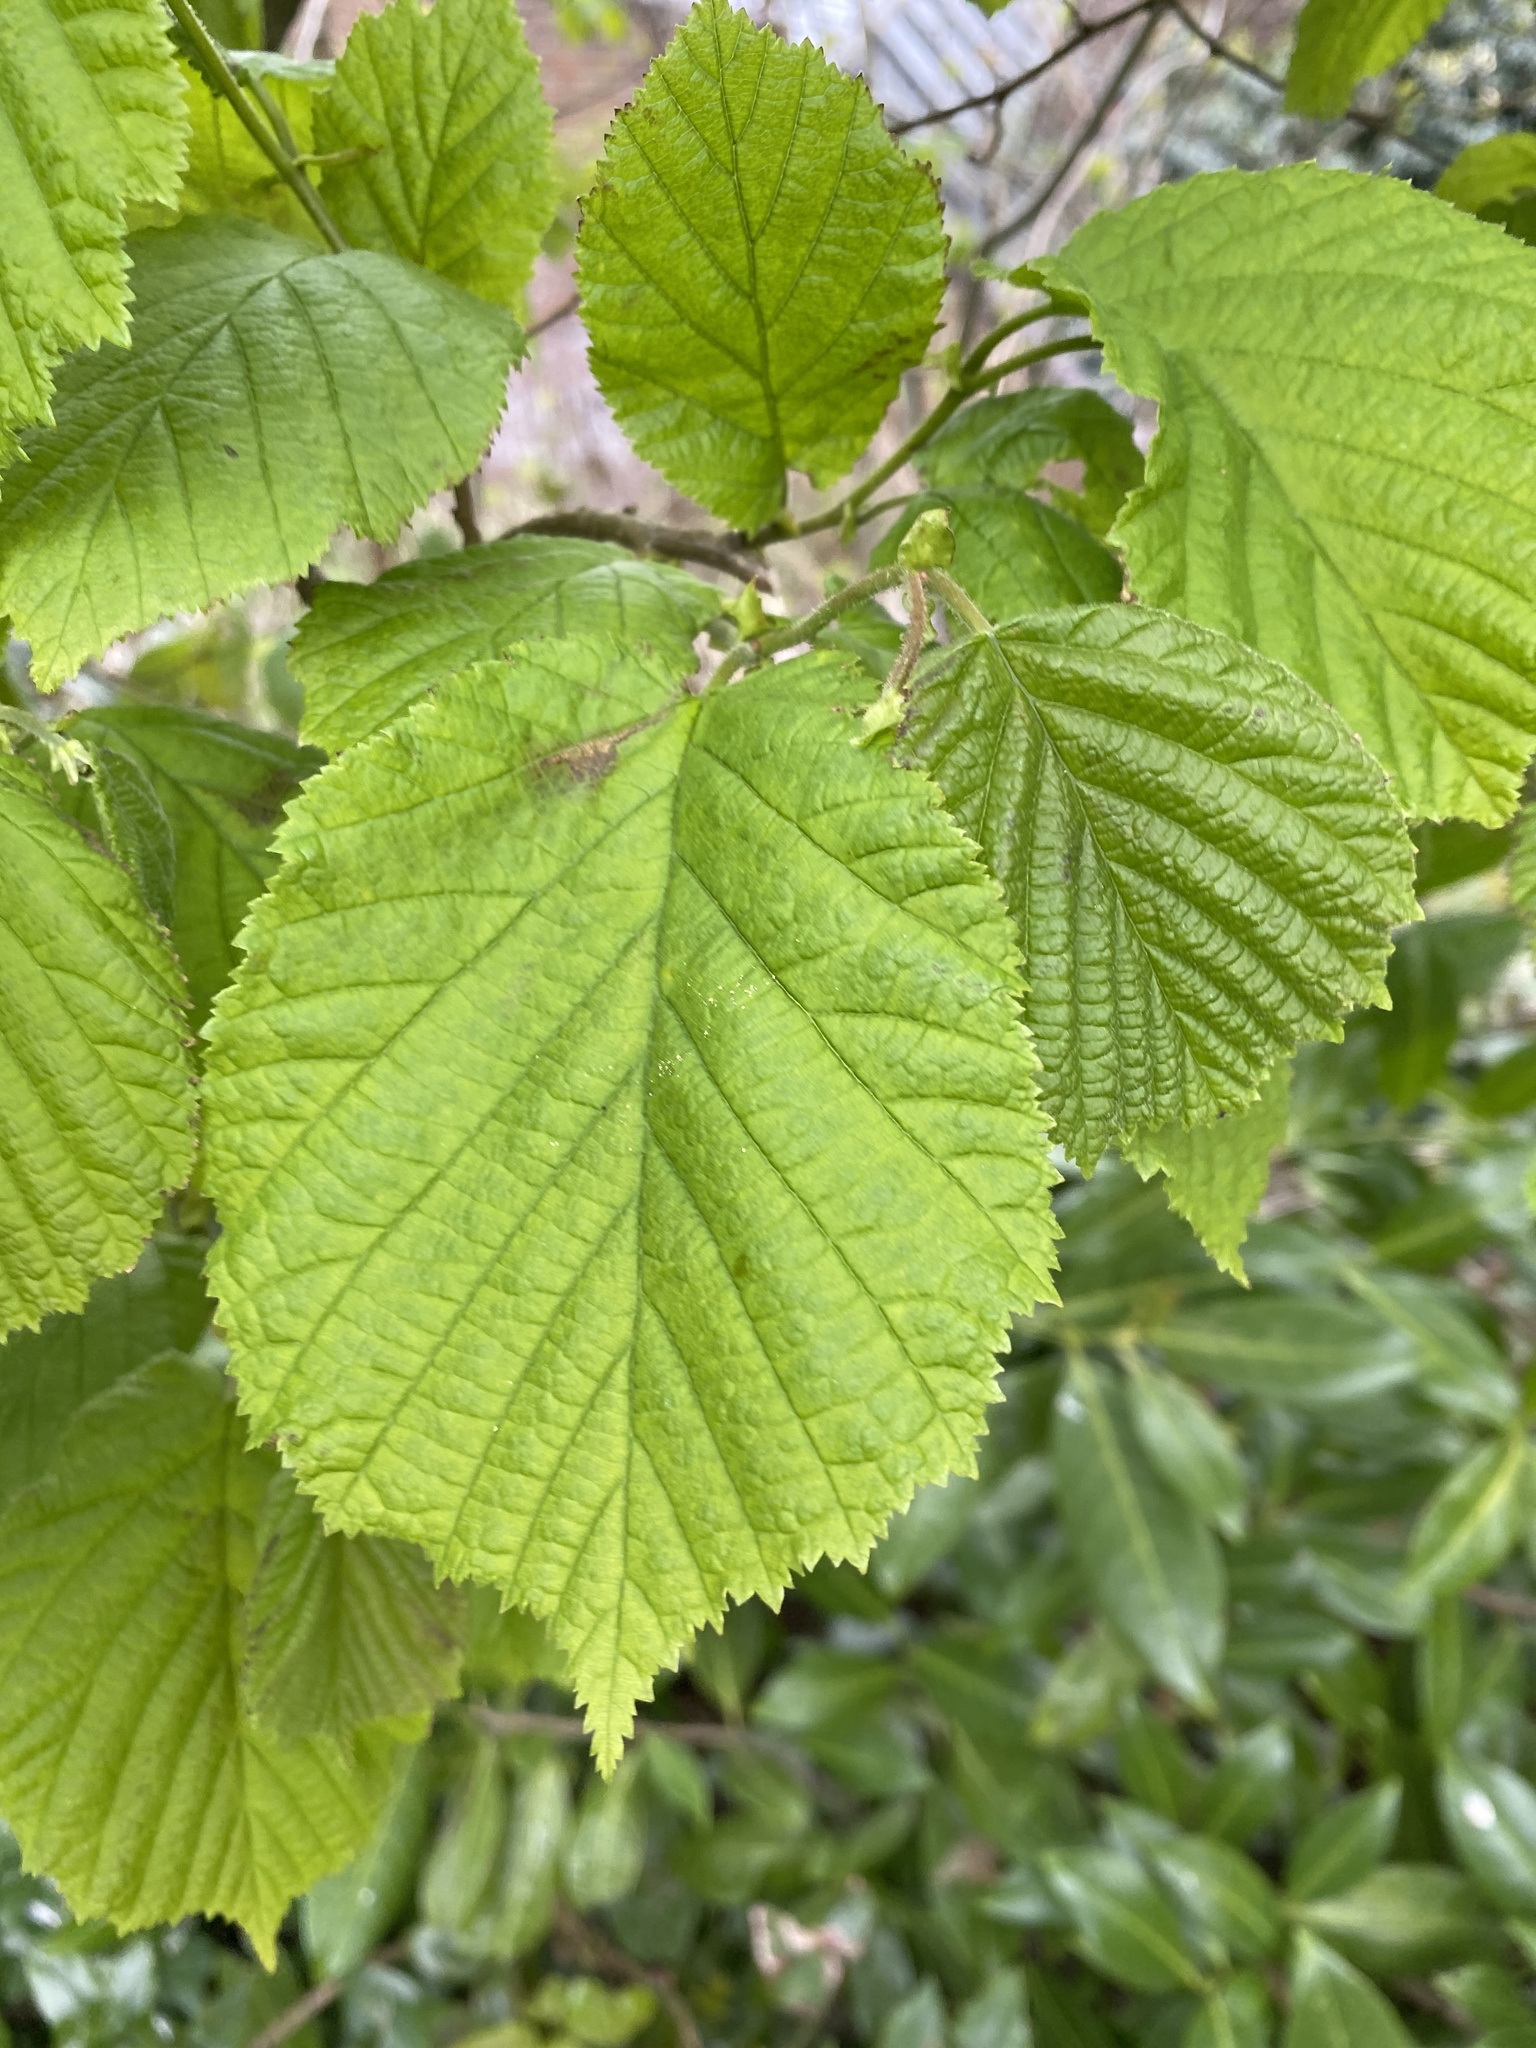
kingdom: Plantae
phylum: Tracheophyta
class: Magnoliopsida
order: Fagales
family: Betulaceae
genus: Corylus
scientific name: Corylus avellana
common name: European hazel
